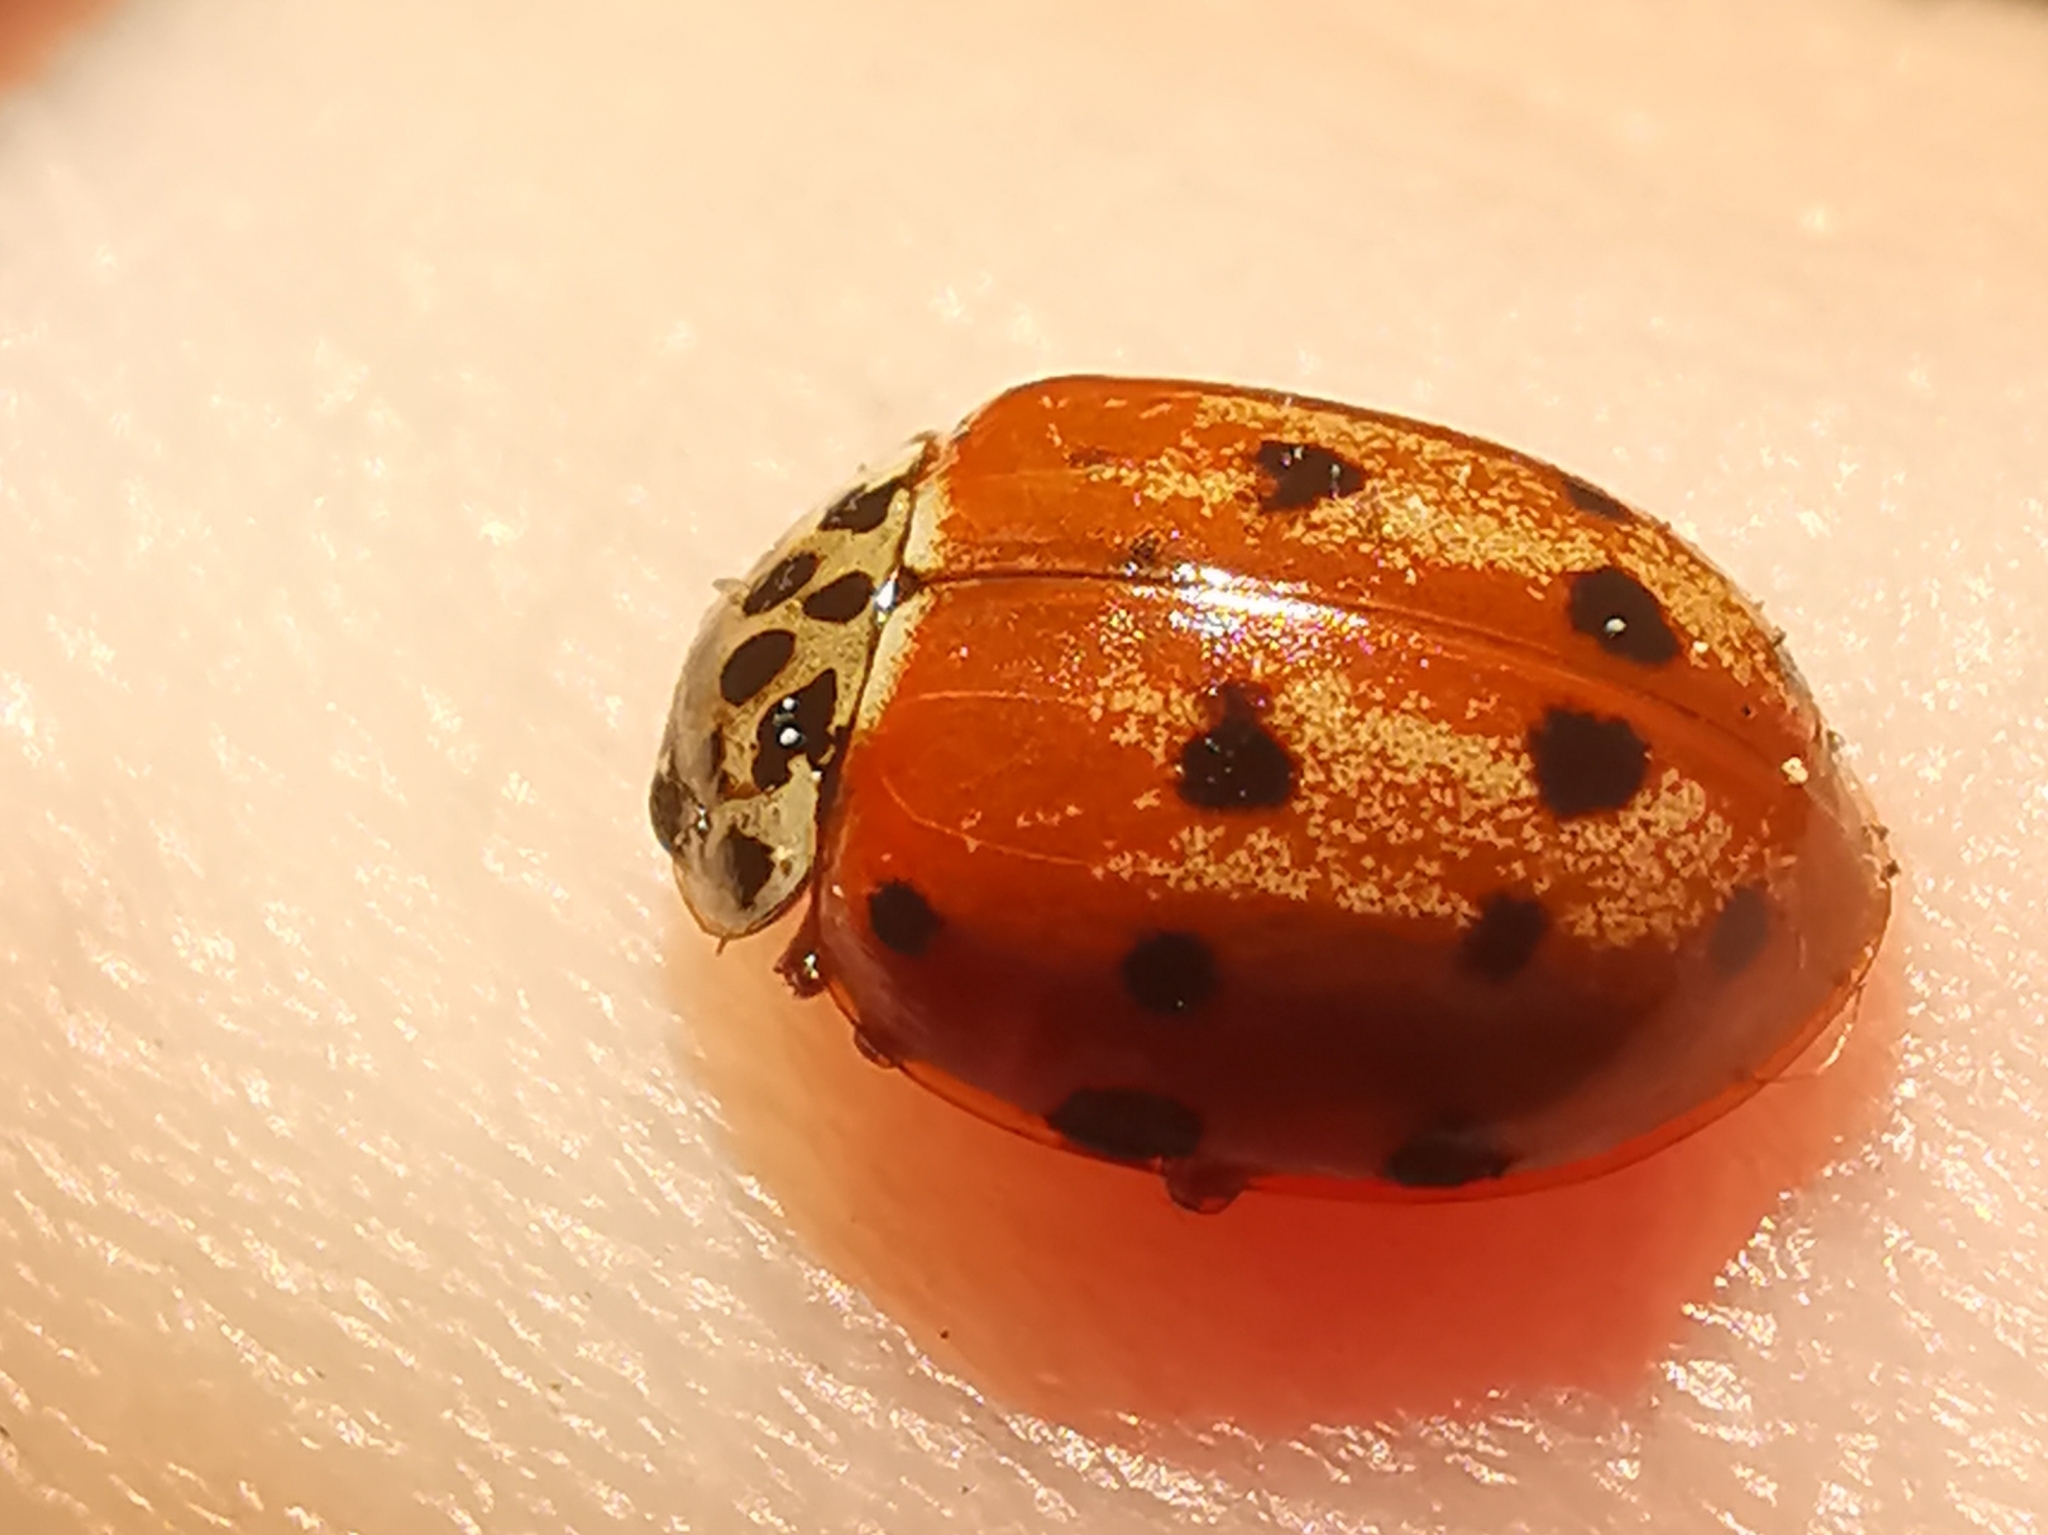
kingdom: Animalia
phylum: Arthropoda
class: Insecta
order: Coleoptera
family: Coccinellidae
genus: Harmonia
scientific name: Harmonia quadripunctata
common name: Cream-streaked ladybird
